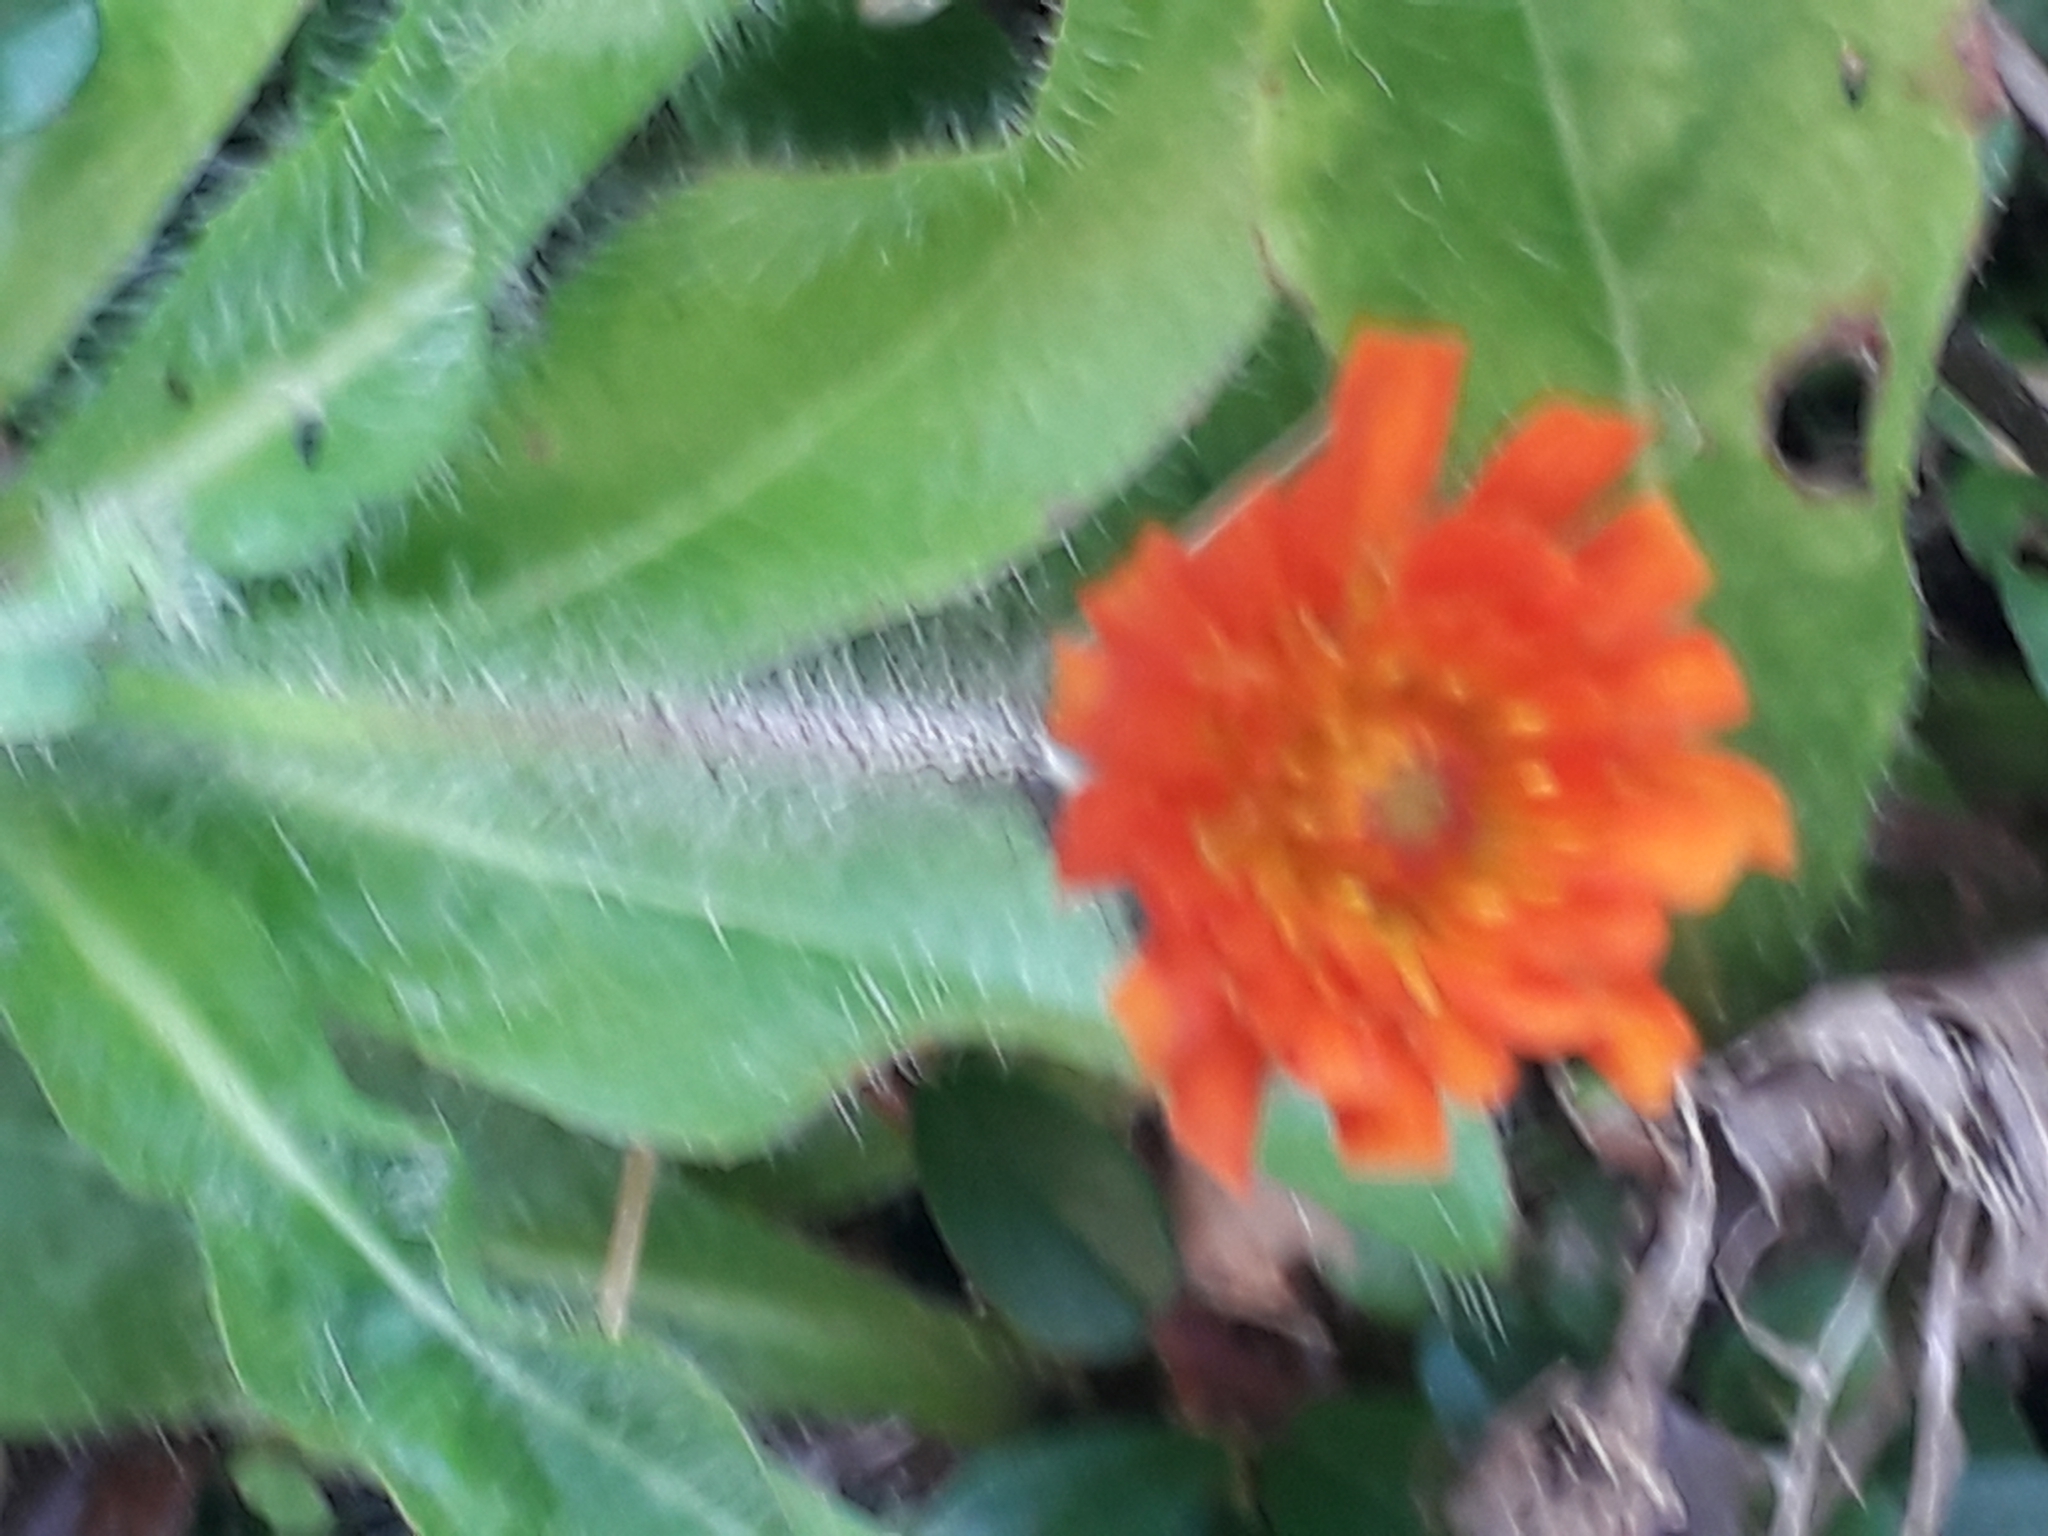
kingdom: Plantae
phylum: Tracheophyta
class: Magnoliopsida
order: Asterales
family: Asteraceae
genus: Pilosella
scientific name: Pilosella aurantiaca
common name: Fox-and-cubs
